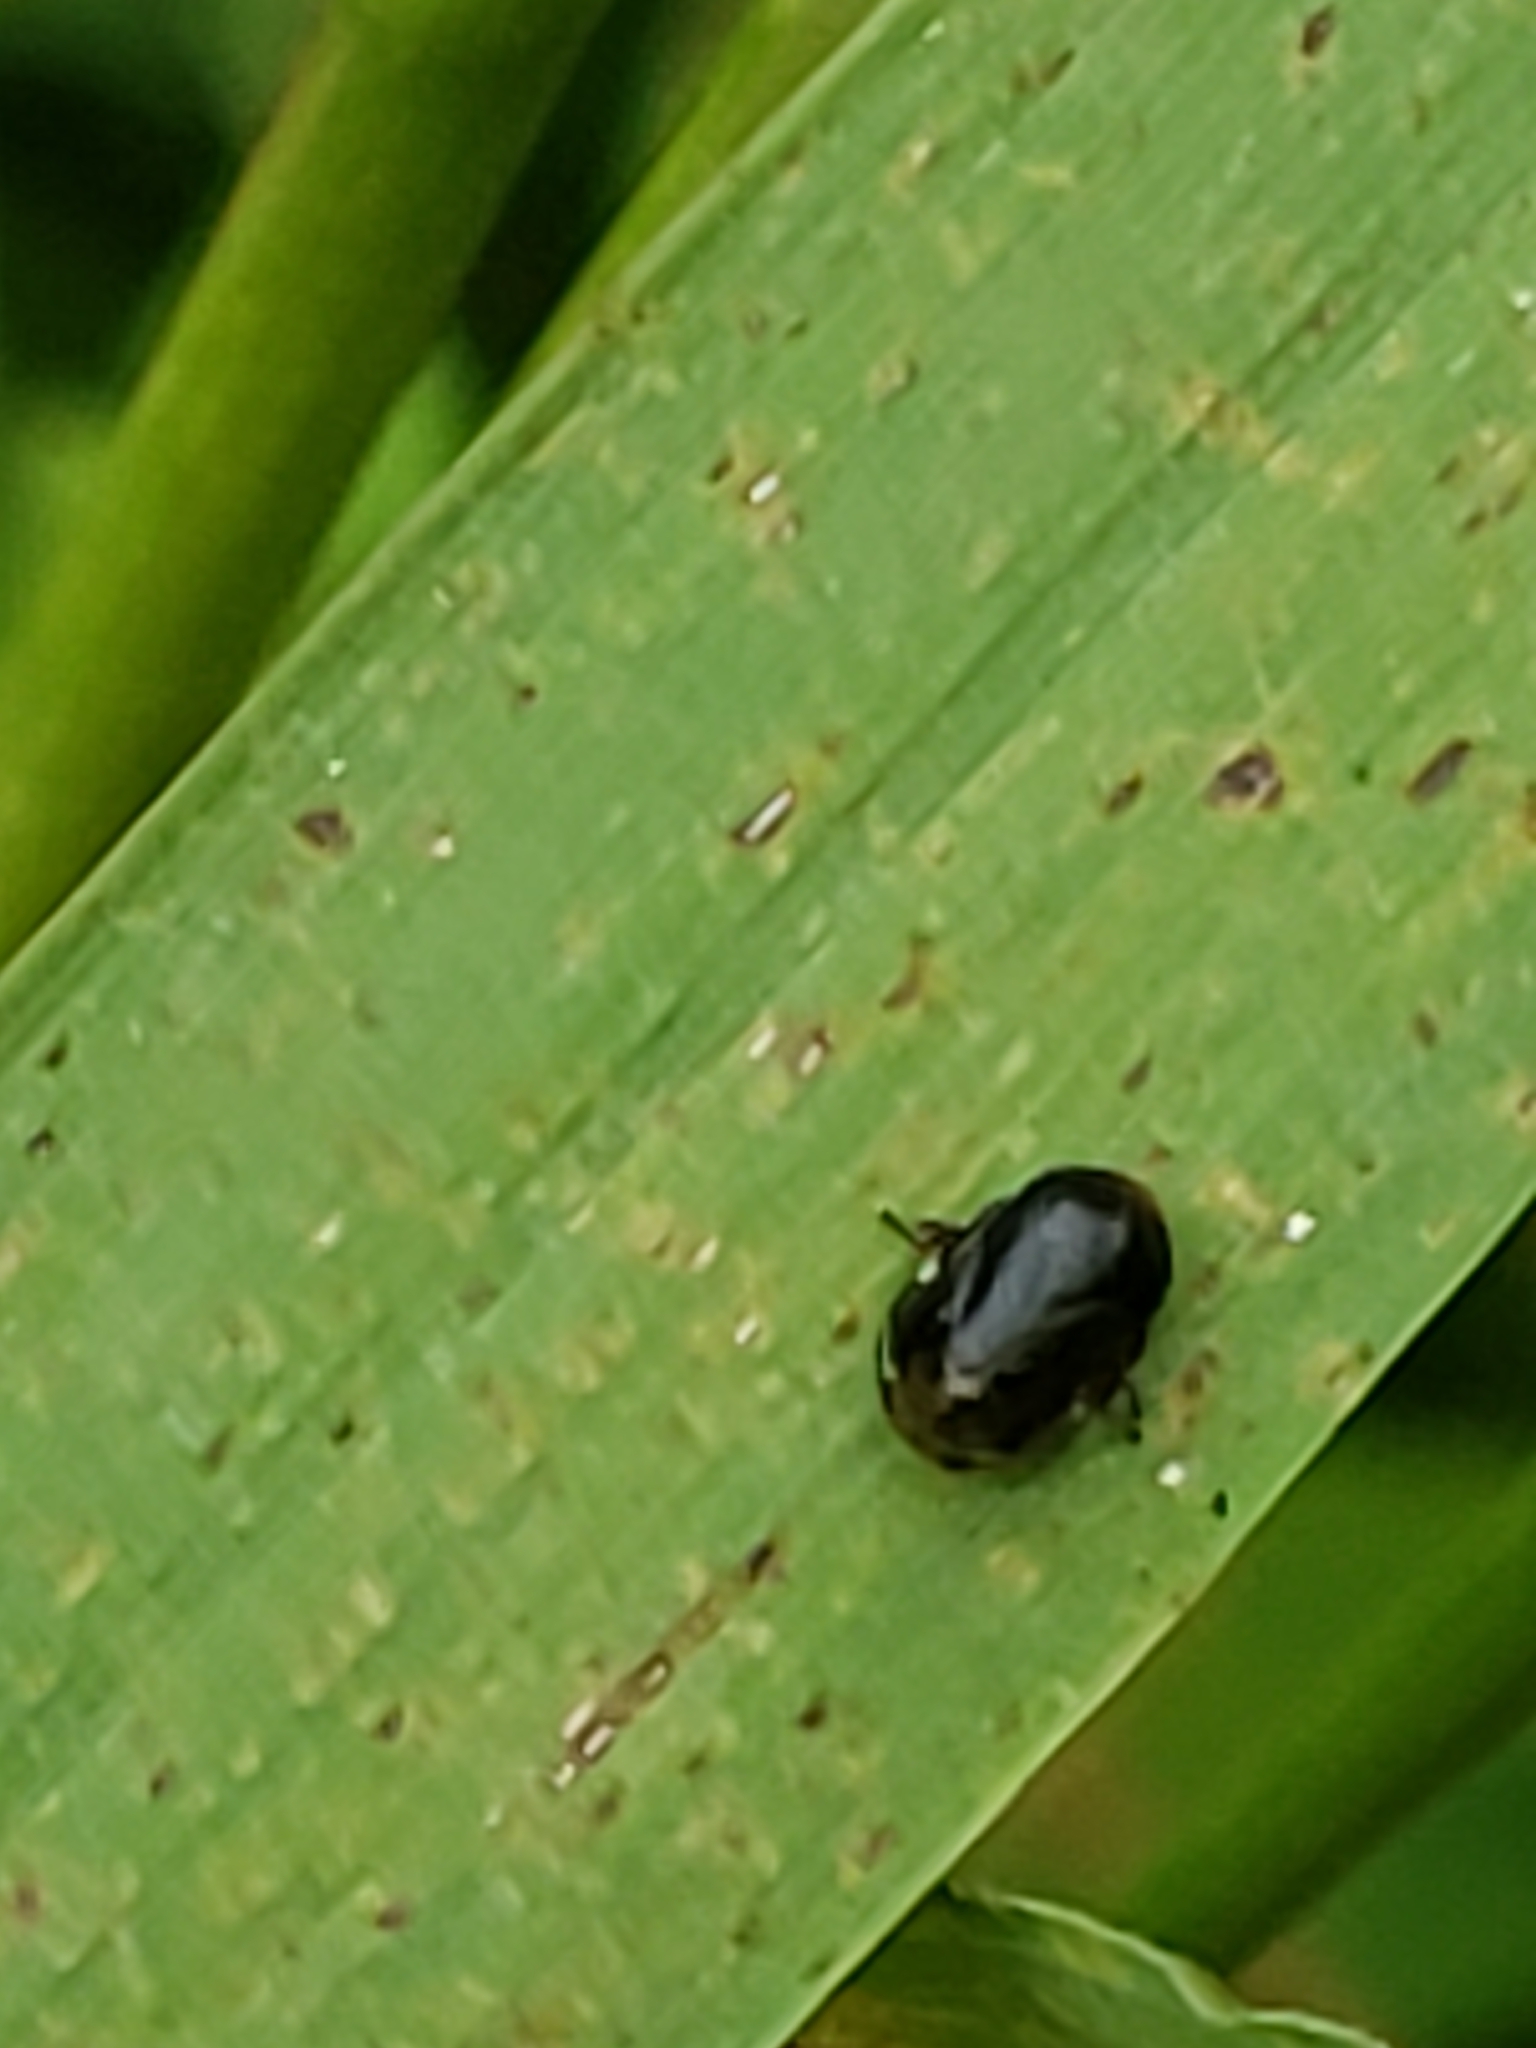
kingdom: Animalia
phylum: Arthropoda
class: Insecta
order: Hemiptera
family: Clastopteridae
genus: Clastoptera
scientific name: Clastoptera xanthocephala
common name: Sunflower spittlebug
